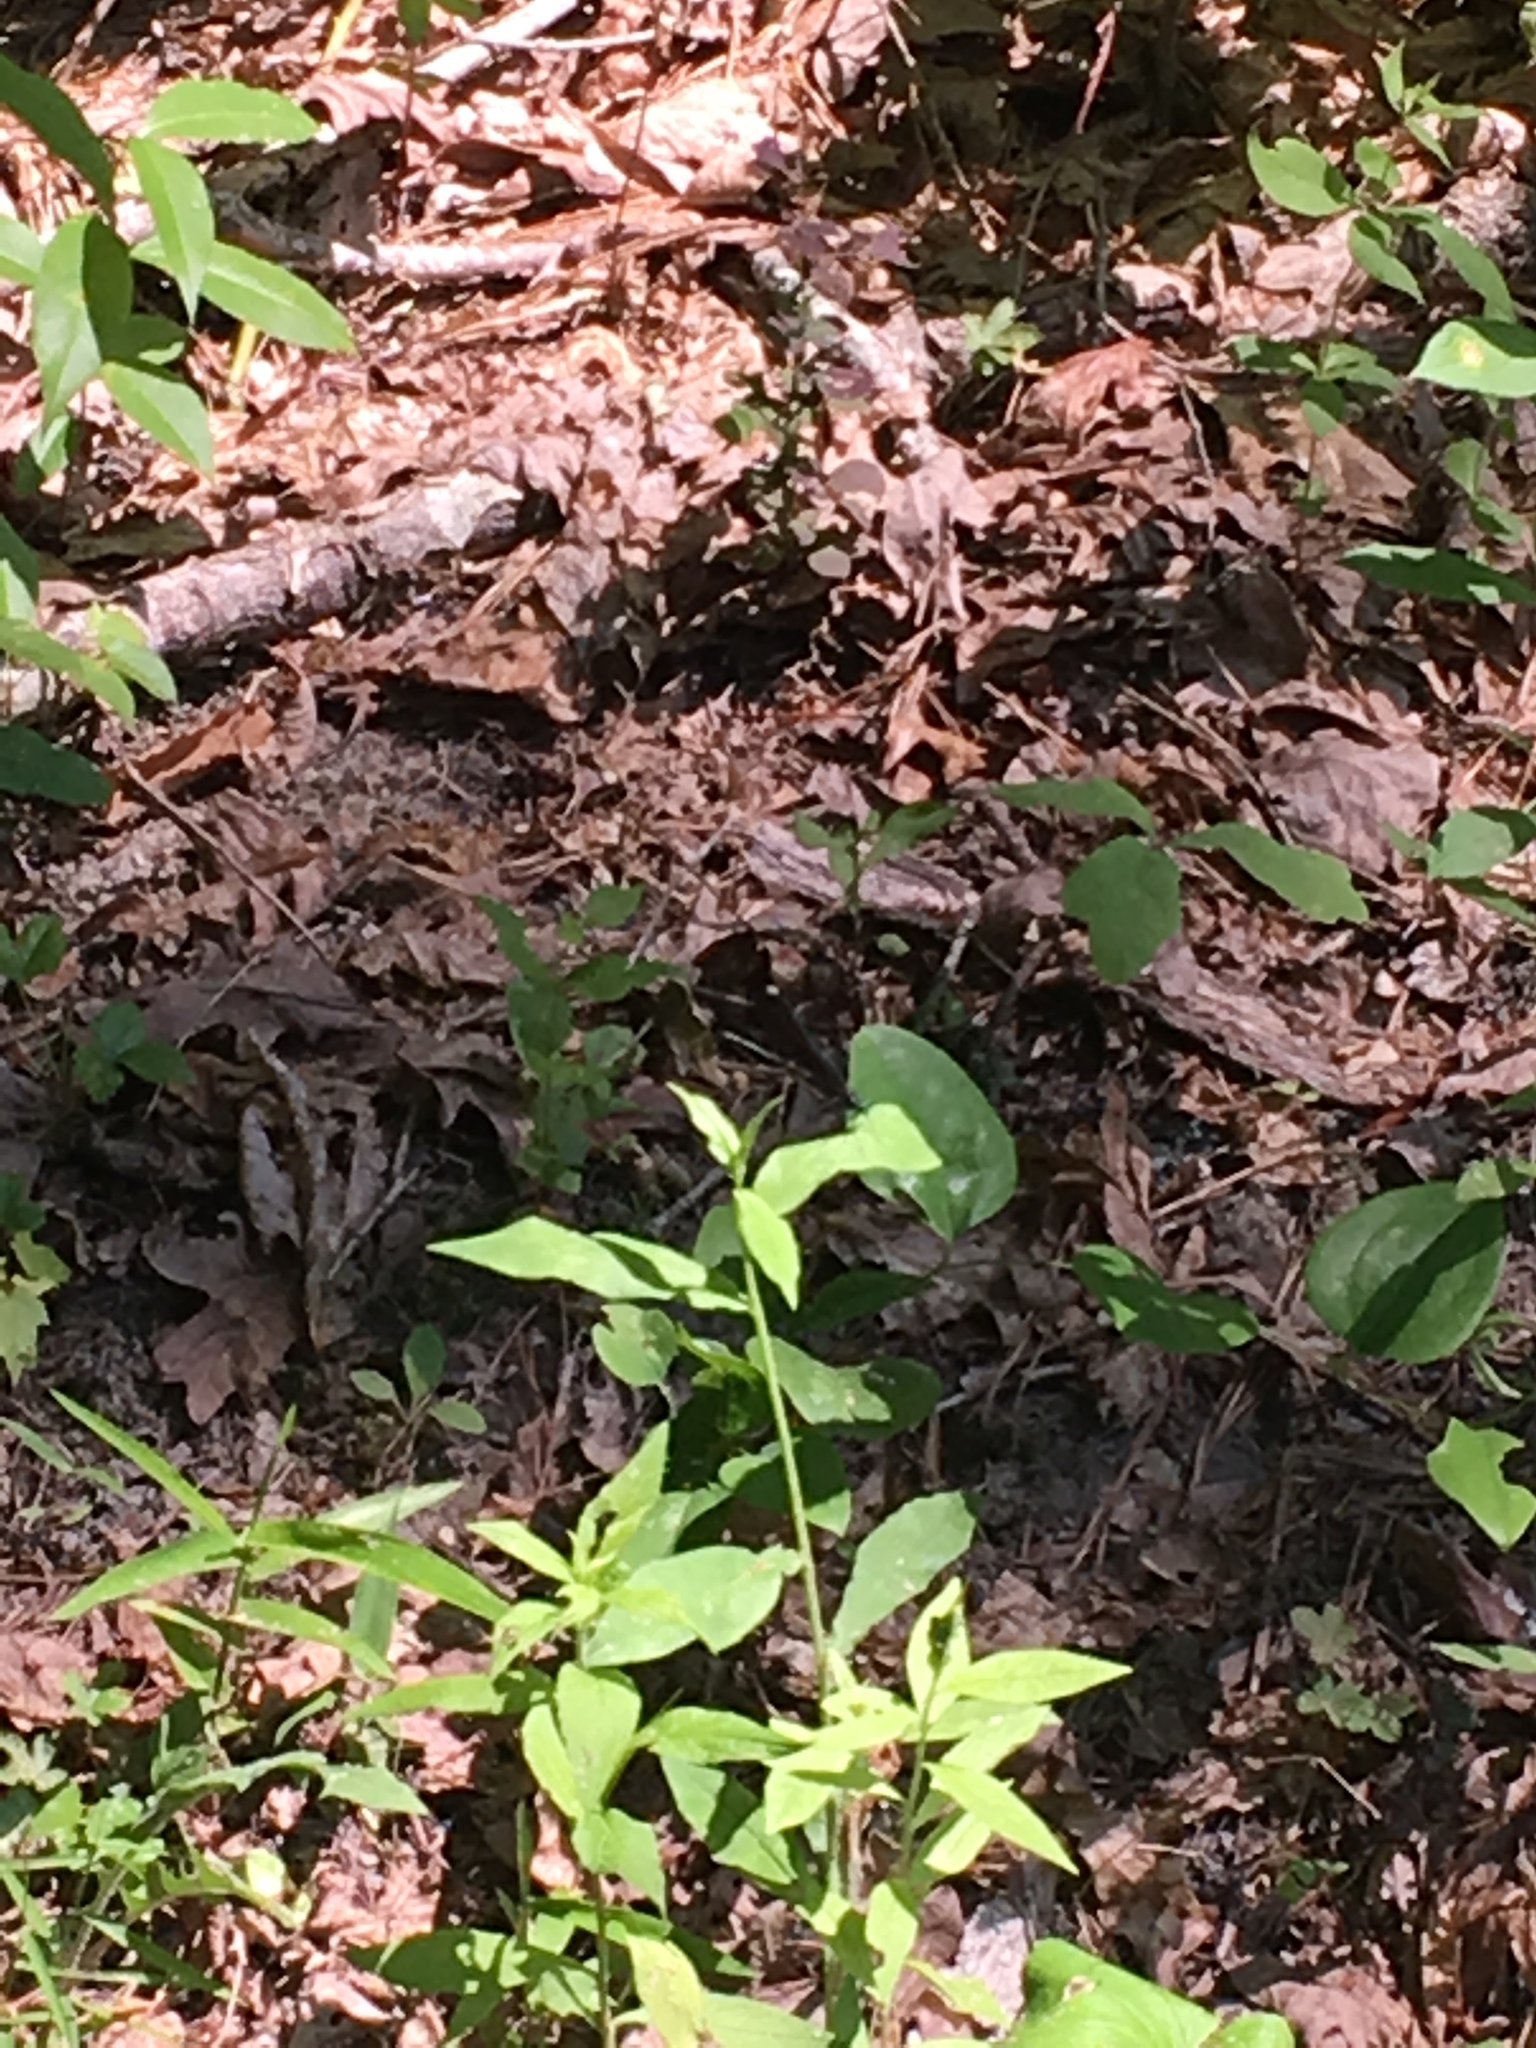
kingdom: Animalia
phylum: Arthropoda
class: Insecta
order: Odonata
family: Calopterygidae
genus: Calopteryx
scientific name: Calopteryx maculata
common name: Ebony jewelwing
